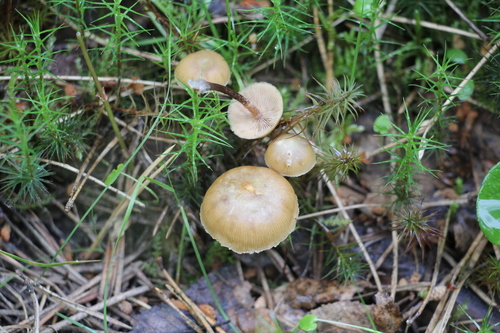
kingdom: Fungi
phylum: Basidiomycota
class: Agaricomycetes
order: Agaricales
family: Strophariaceae
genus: Pholiota
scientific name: Pholiota lignicola
